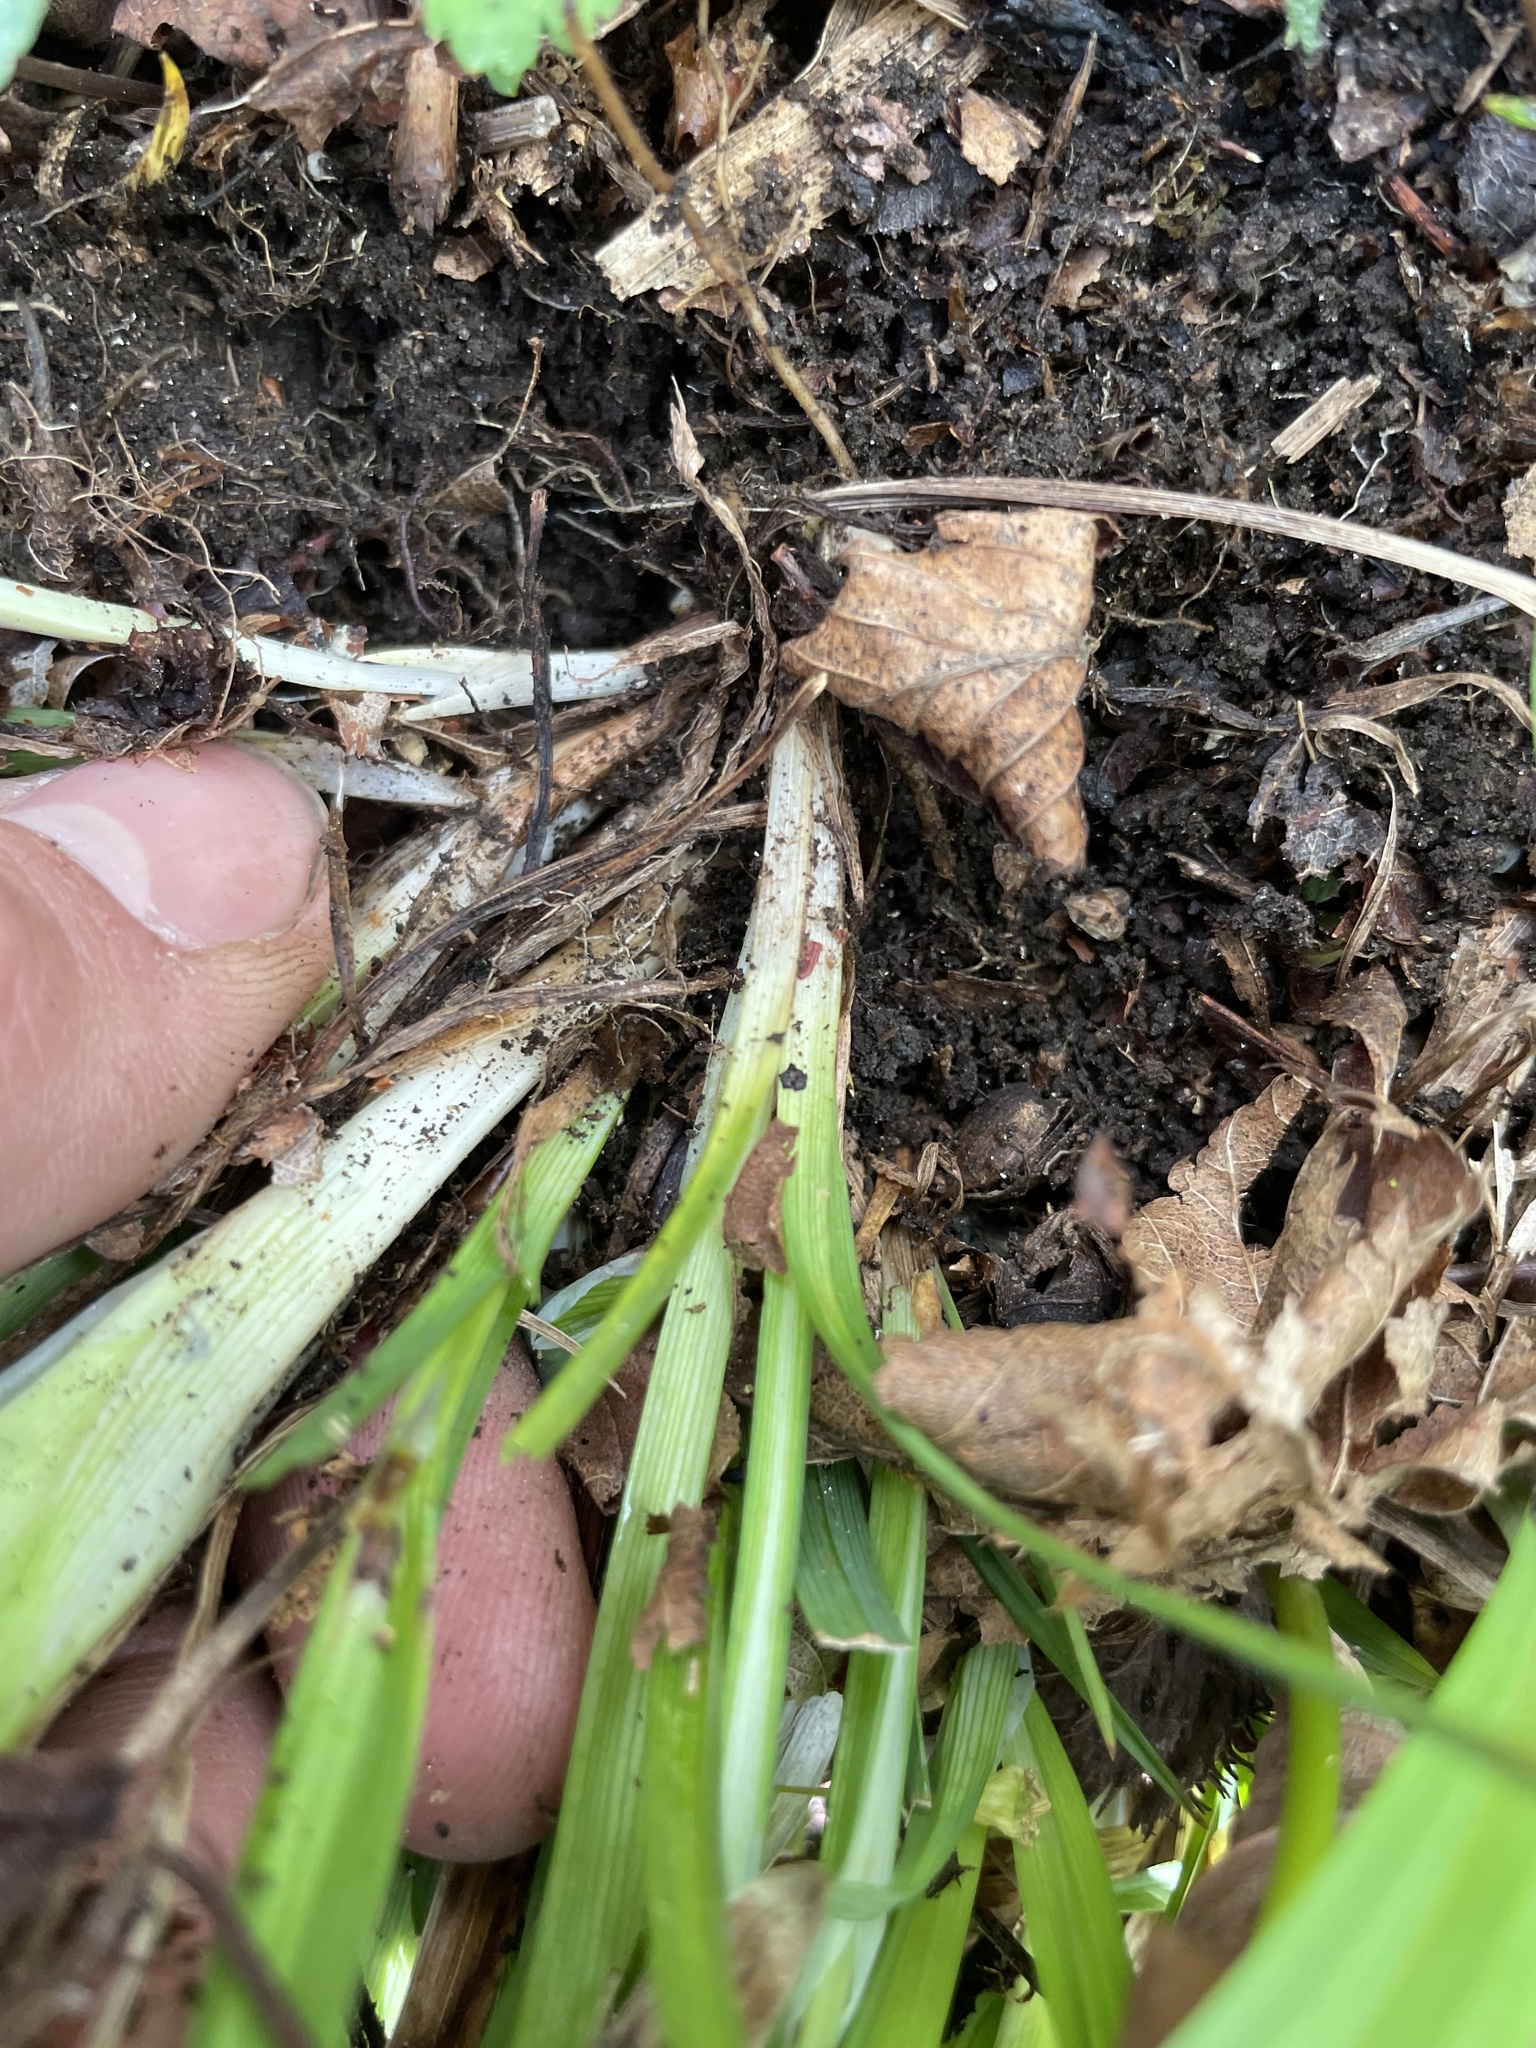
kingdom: Plantae
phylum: Tracheophyta
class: Liliopsida
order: Poales
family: Cyperaceae
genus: Carex
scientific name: Carex laxiflora
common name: Beech wood sedge
